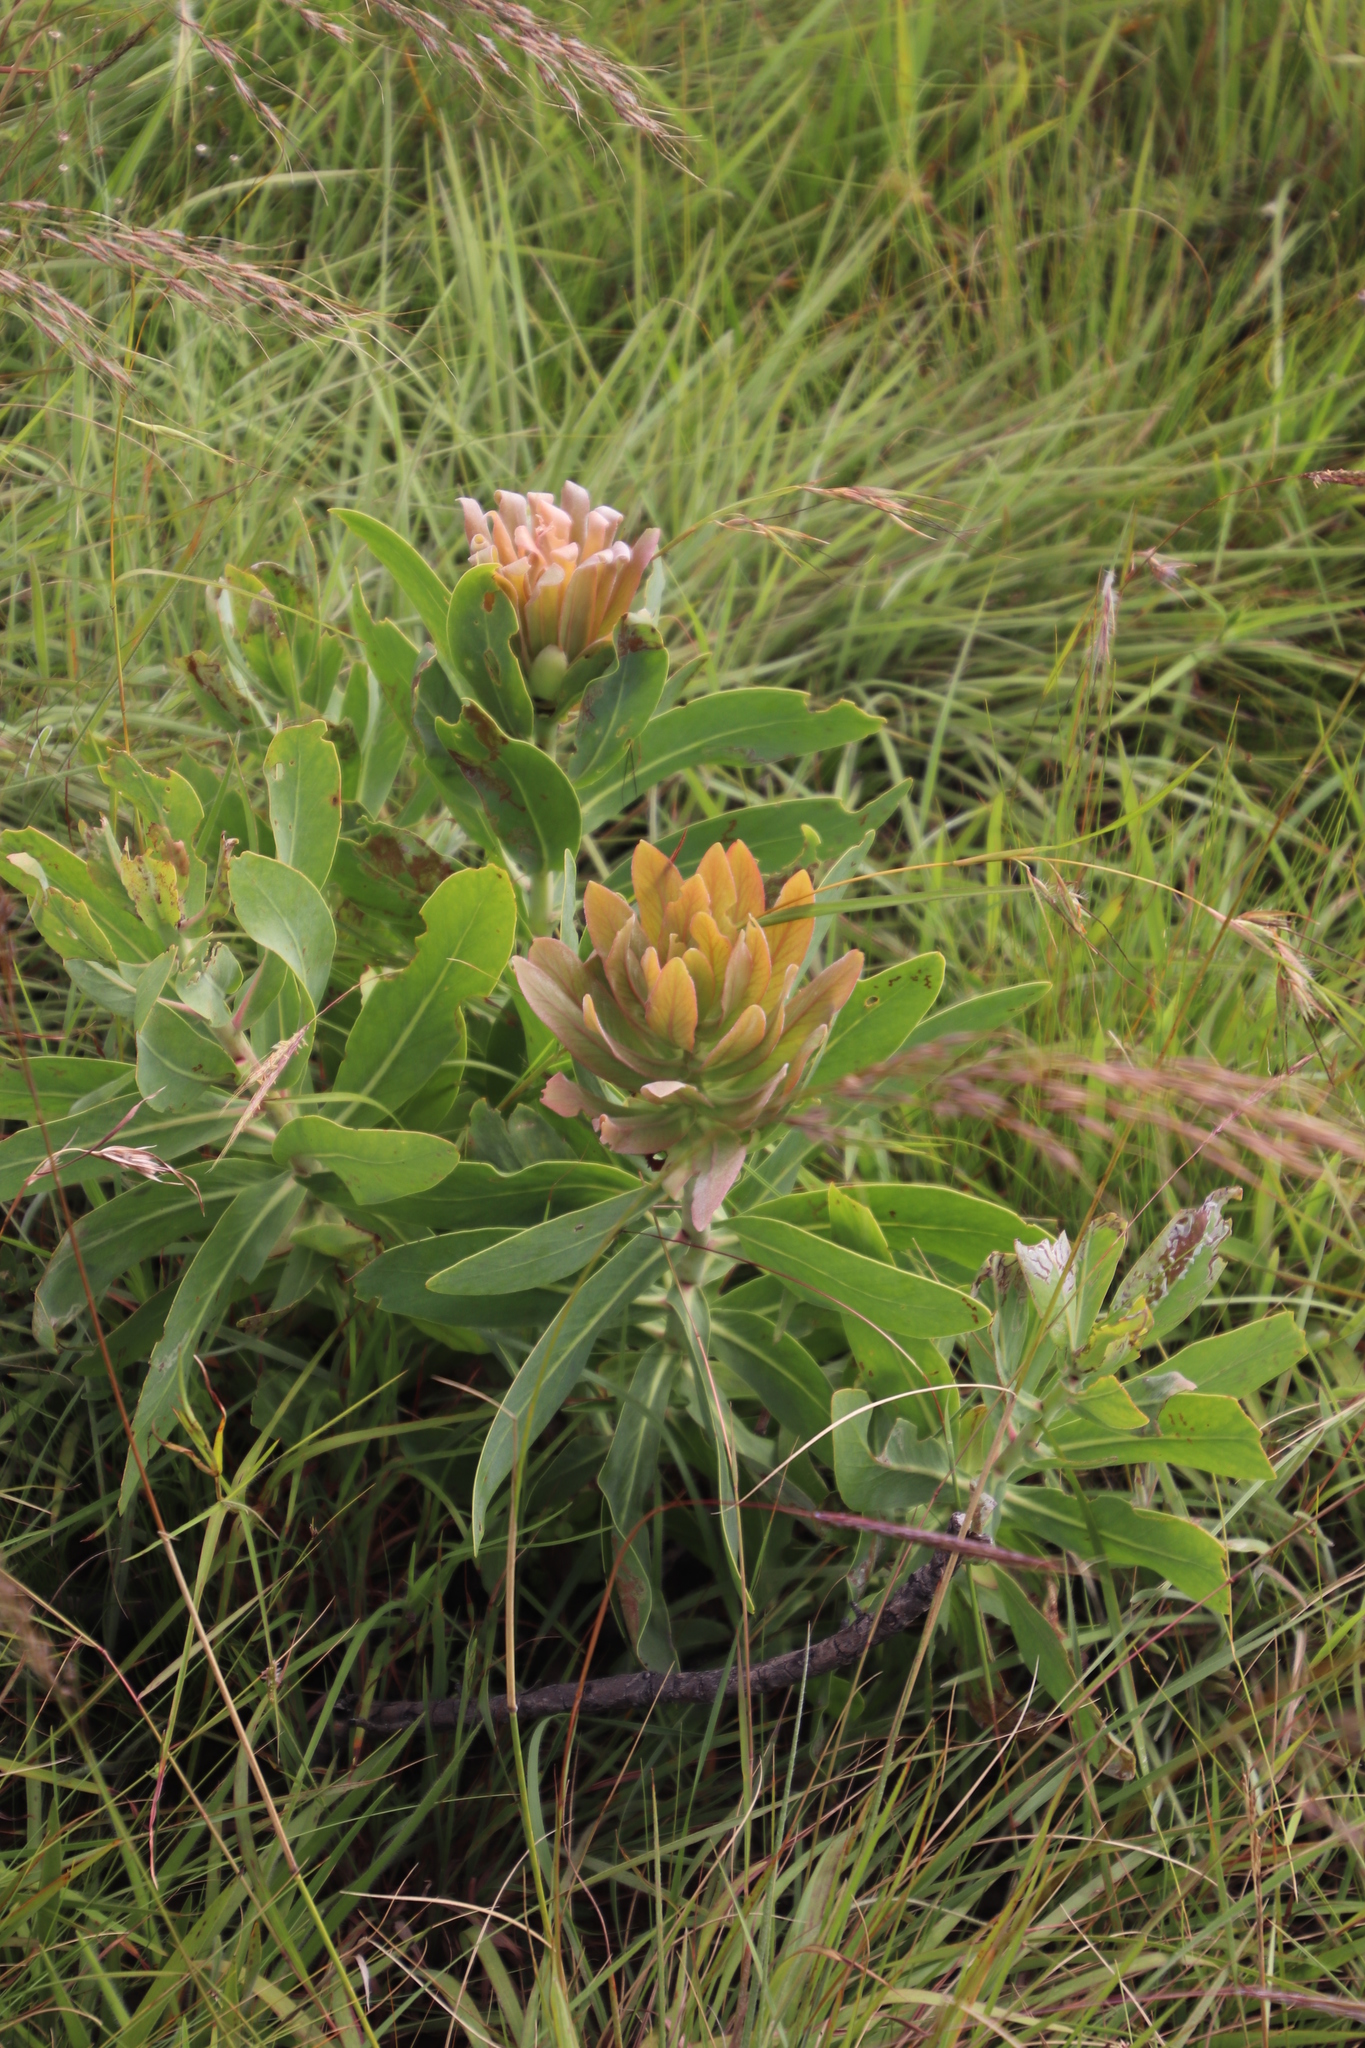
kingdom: Plantae
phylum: Tracheophyta
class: Magnoliopsida
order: Proteales
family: Proteaceae
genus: Protea
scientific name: Protea caffra
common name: Common sugarbush
